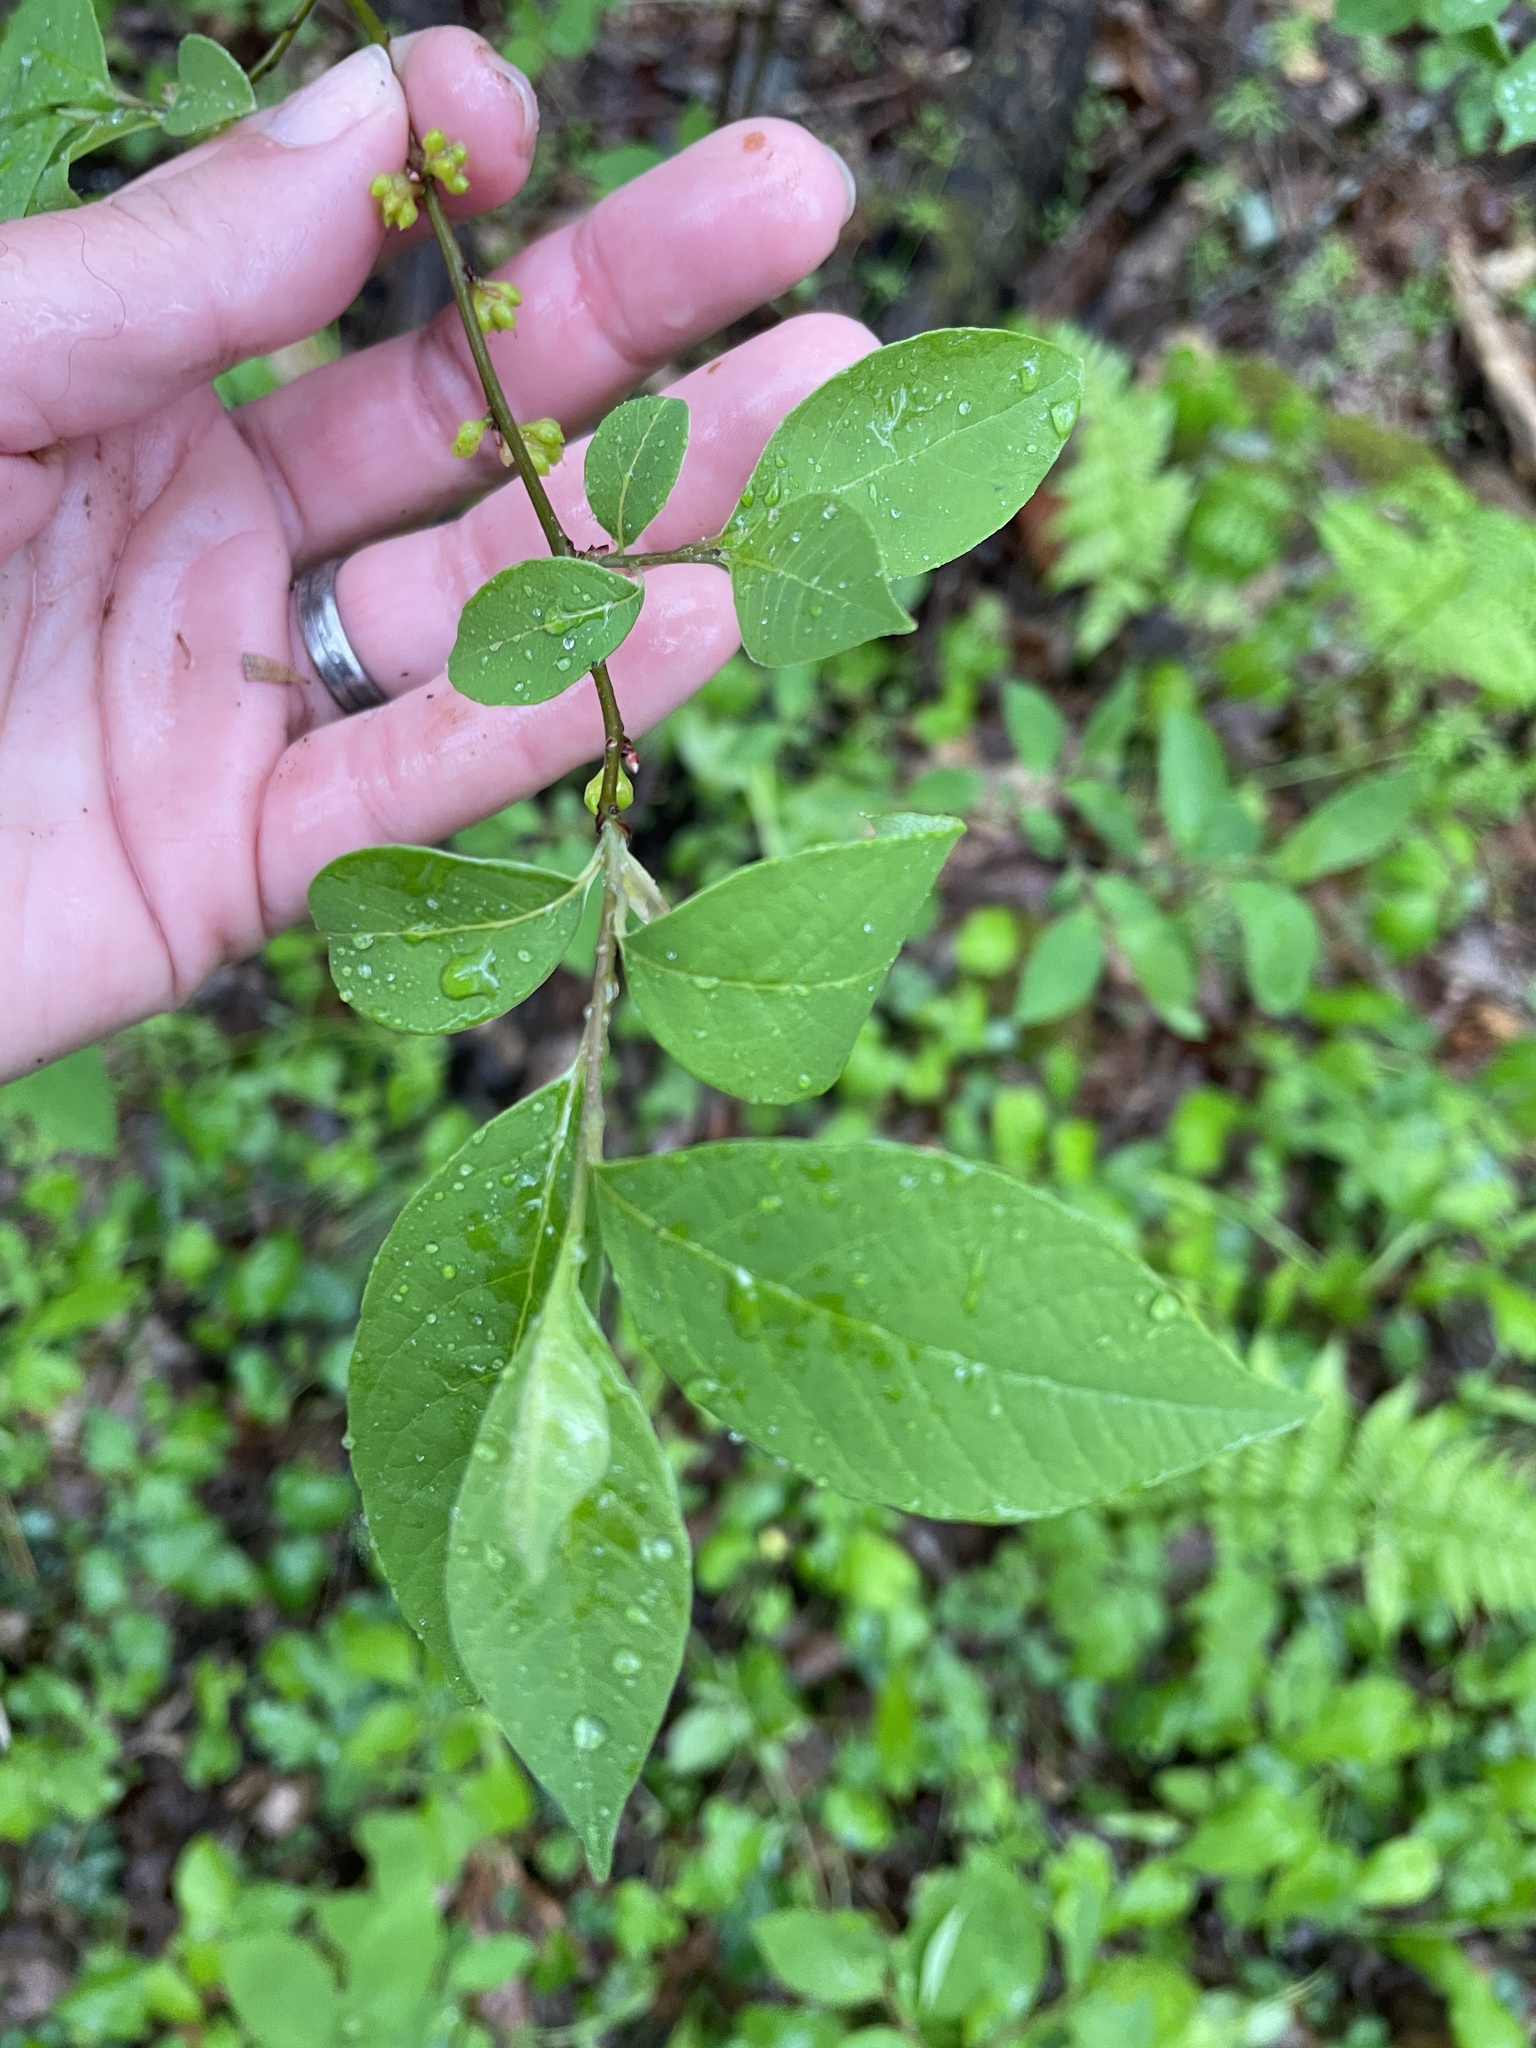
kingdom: Plantae
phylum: Tracheophyta
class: Magnoliopsida
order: Laurales
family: Lauraceae
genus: Lindera
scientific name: Lindera benzoin
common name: Spicebush
